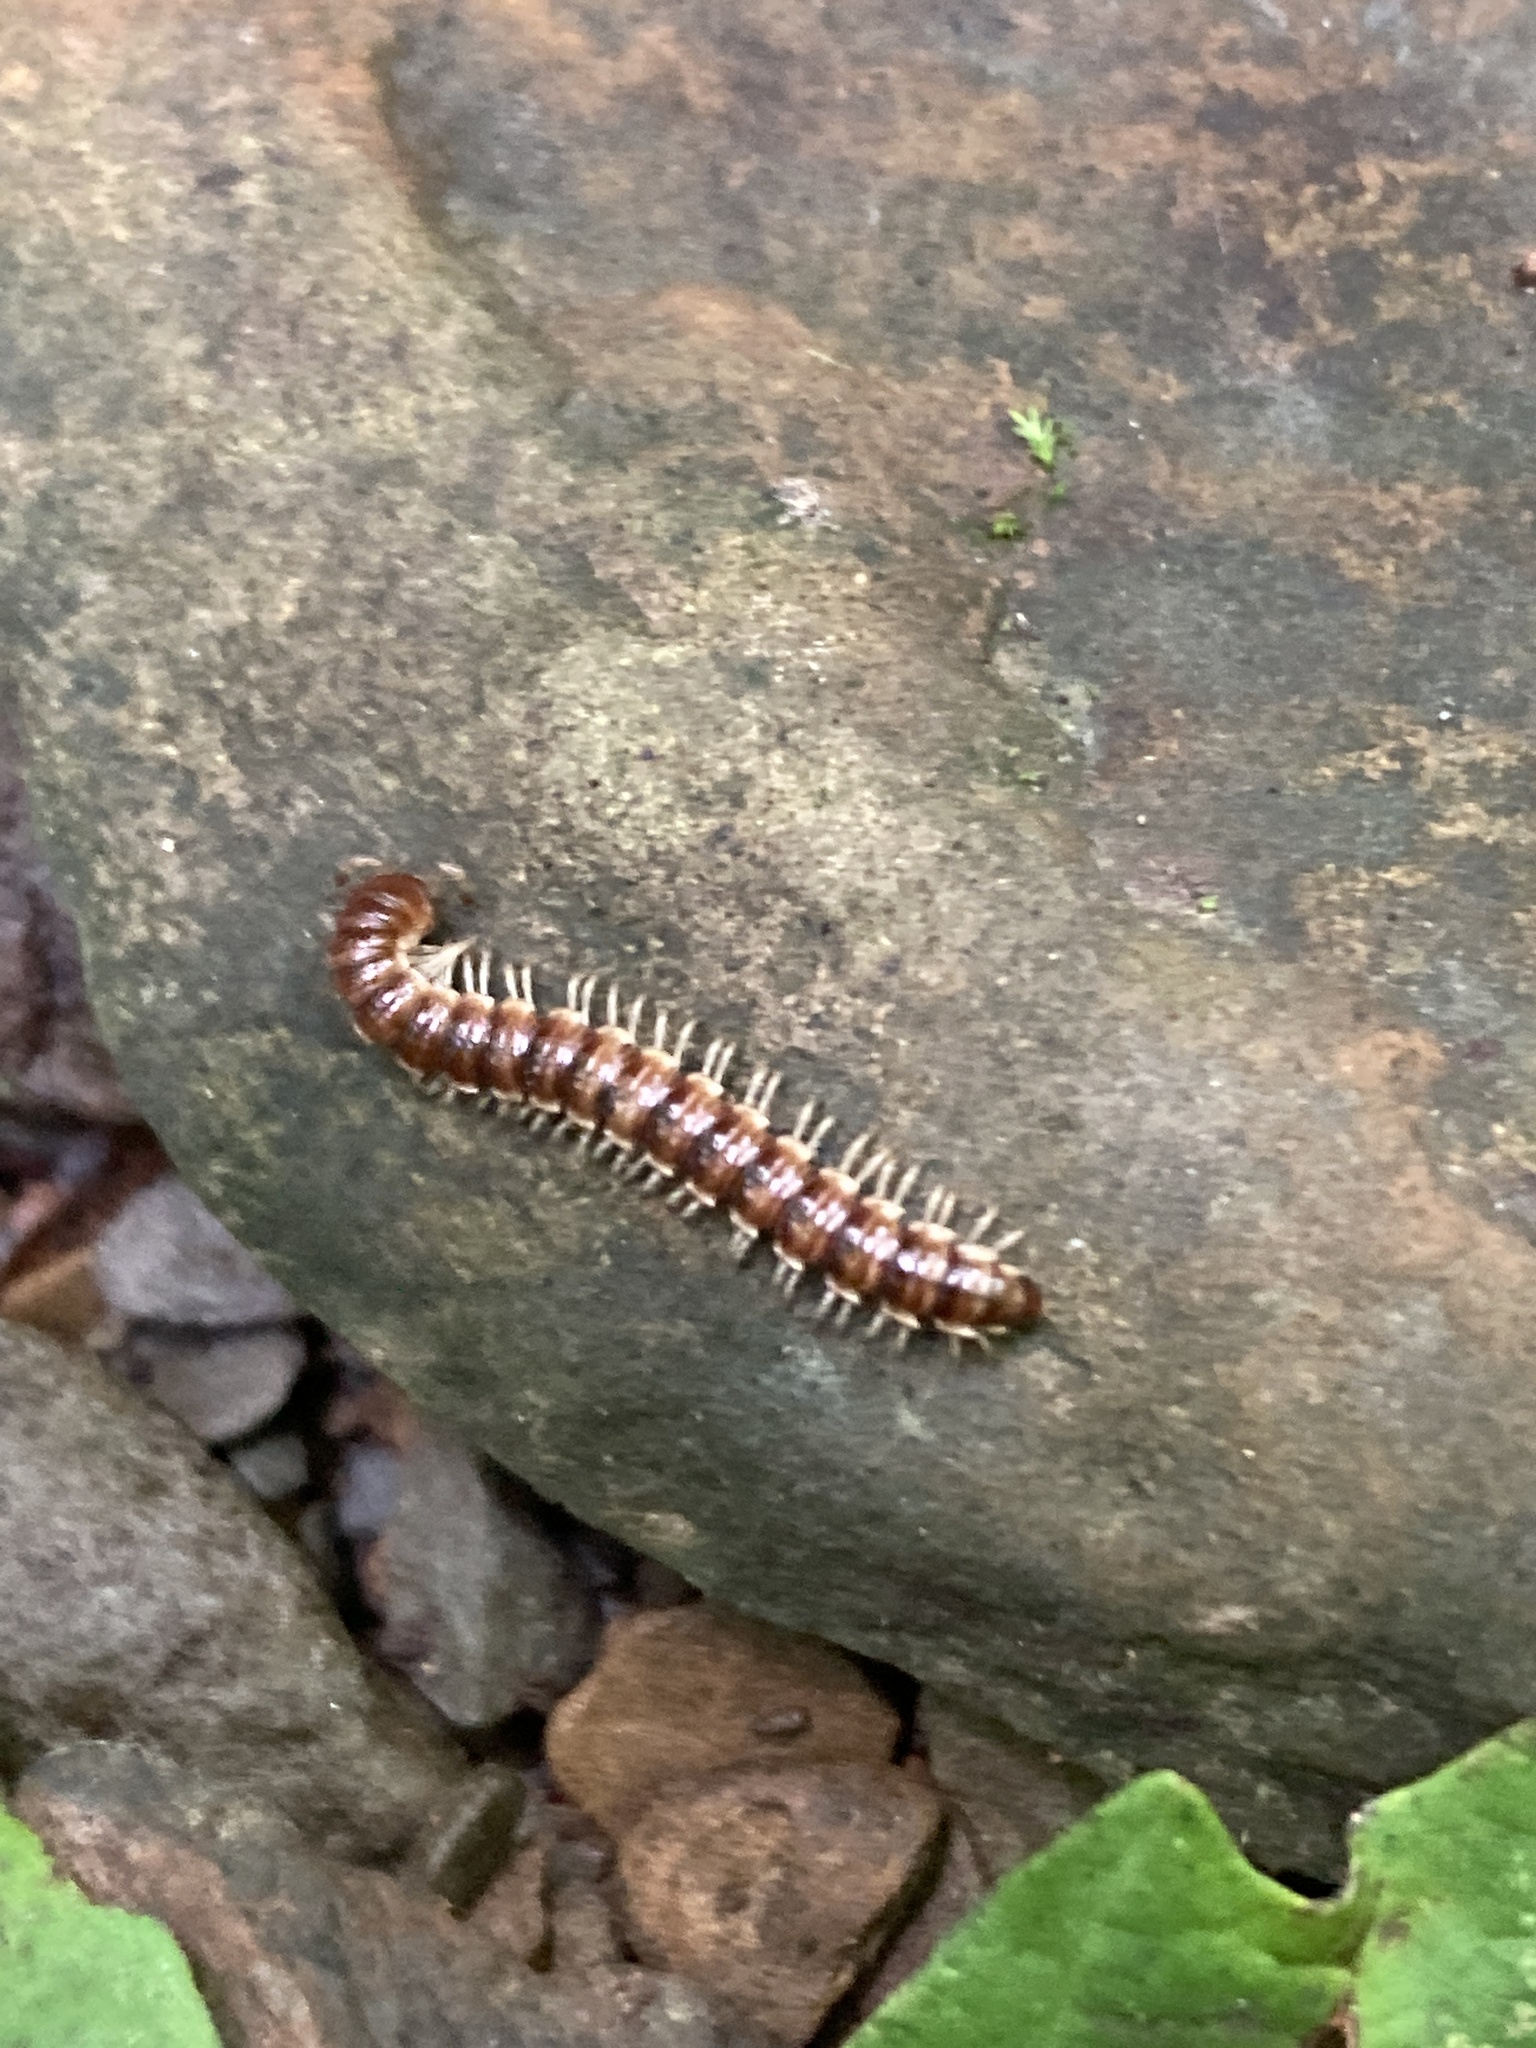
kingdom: Animalia
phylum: Arthropoda
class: Diplopoda
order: Polydesmida
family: Paradoxosomatidae
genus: Oxidus
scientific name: Oxidus gracilis
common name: Greenhouse millipede
